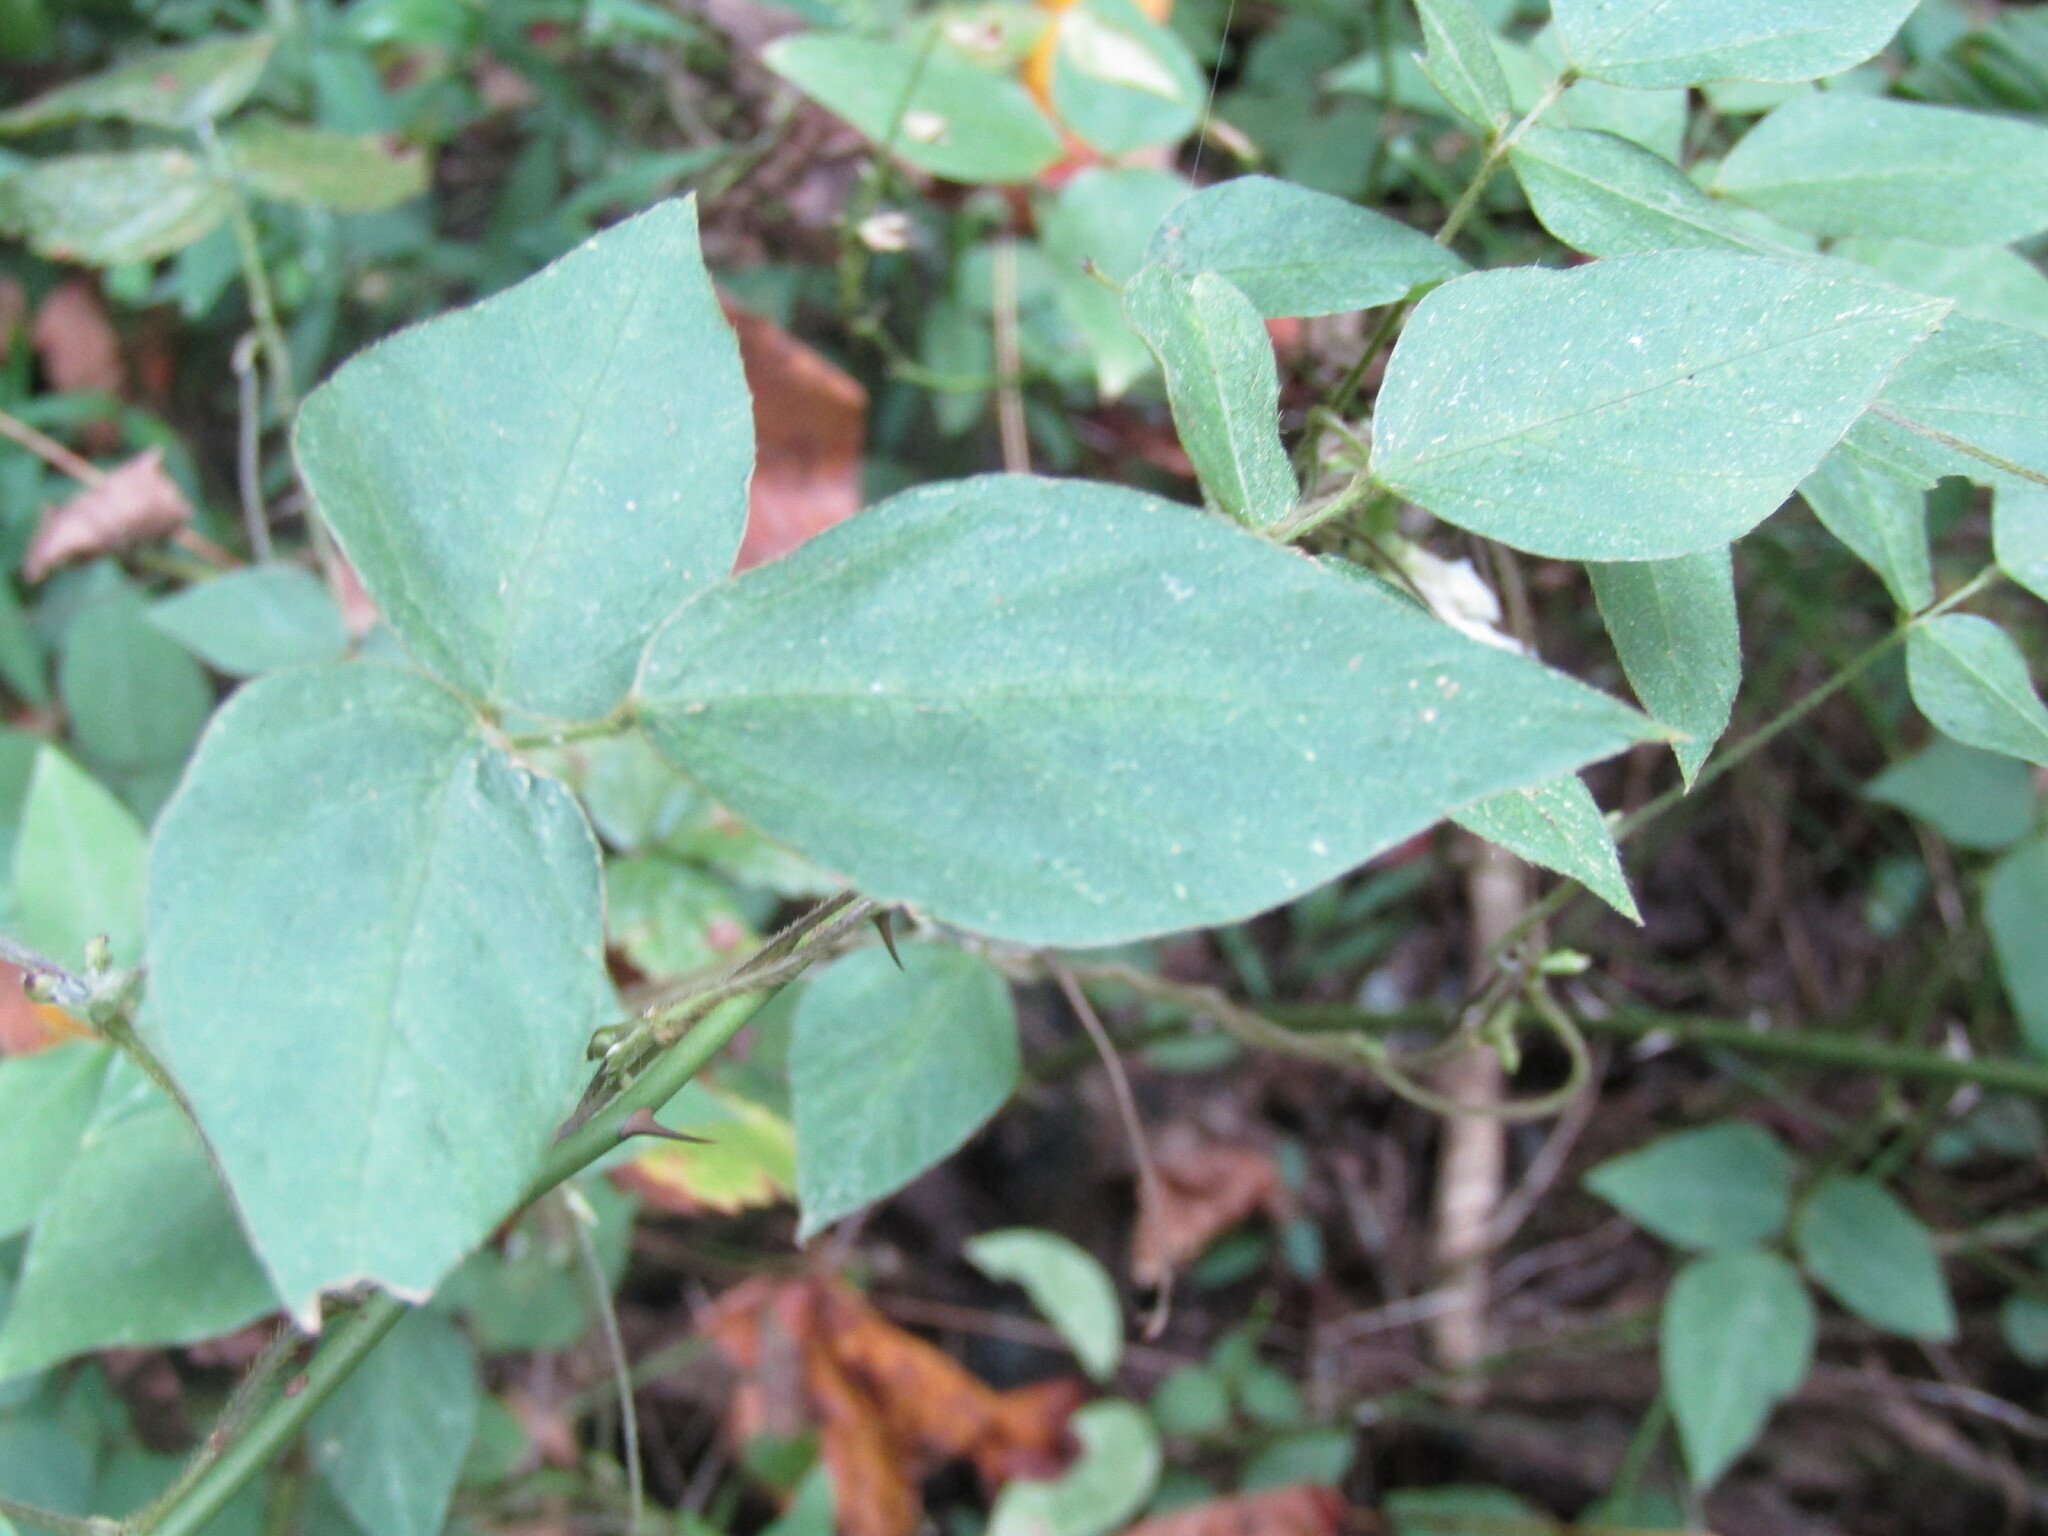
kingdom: Plantae
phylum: Tracheophyta
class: Magnoliopsida
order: Fabales
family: Fabaceae
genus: Amphicarpaea
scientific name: Amphicarpaea bracteata
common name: American hog peanut
